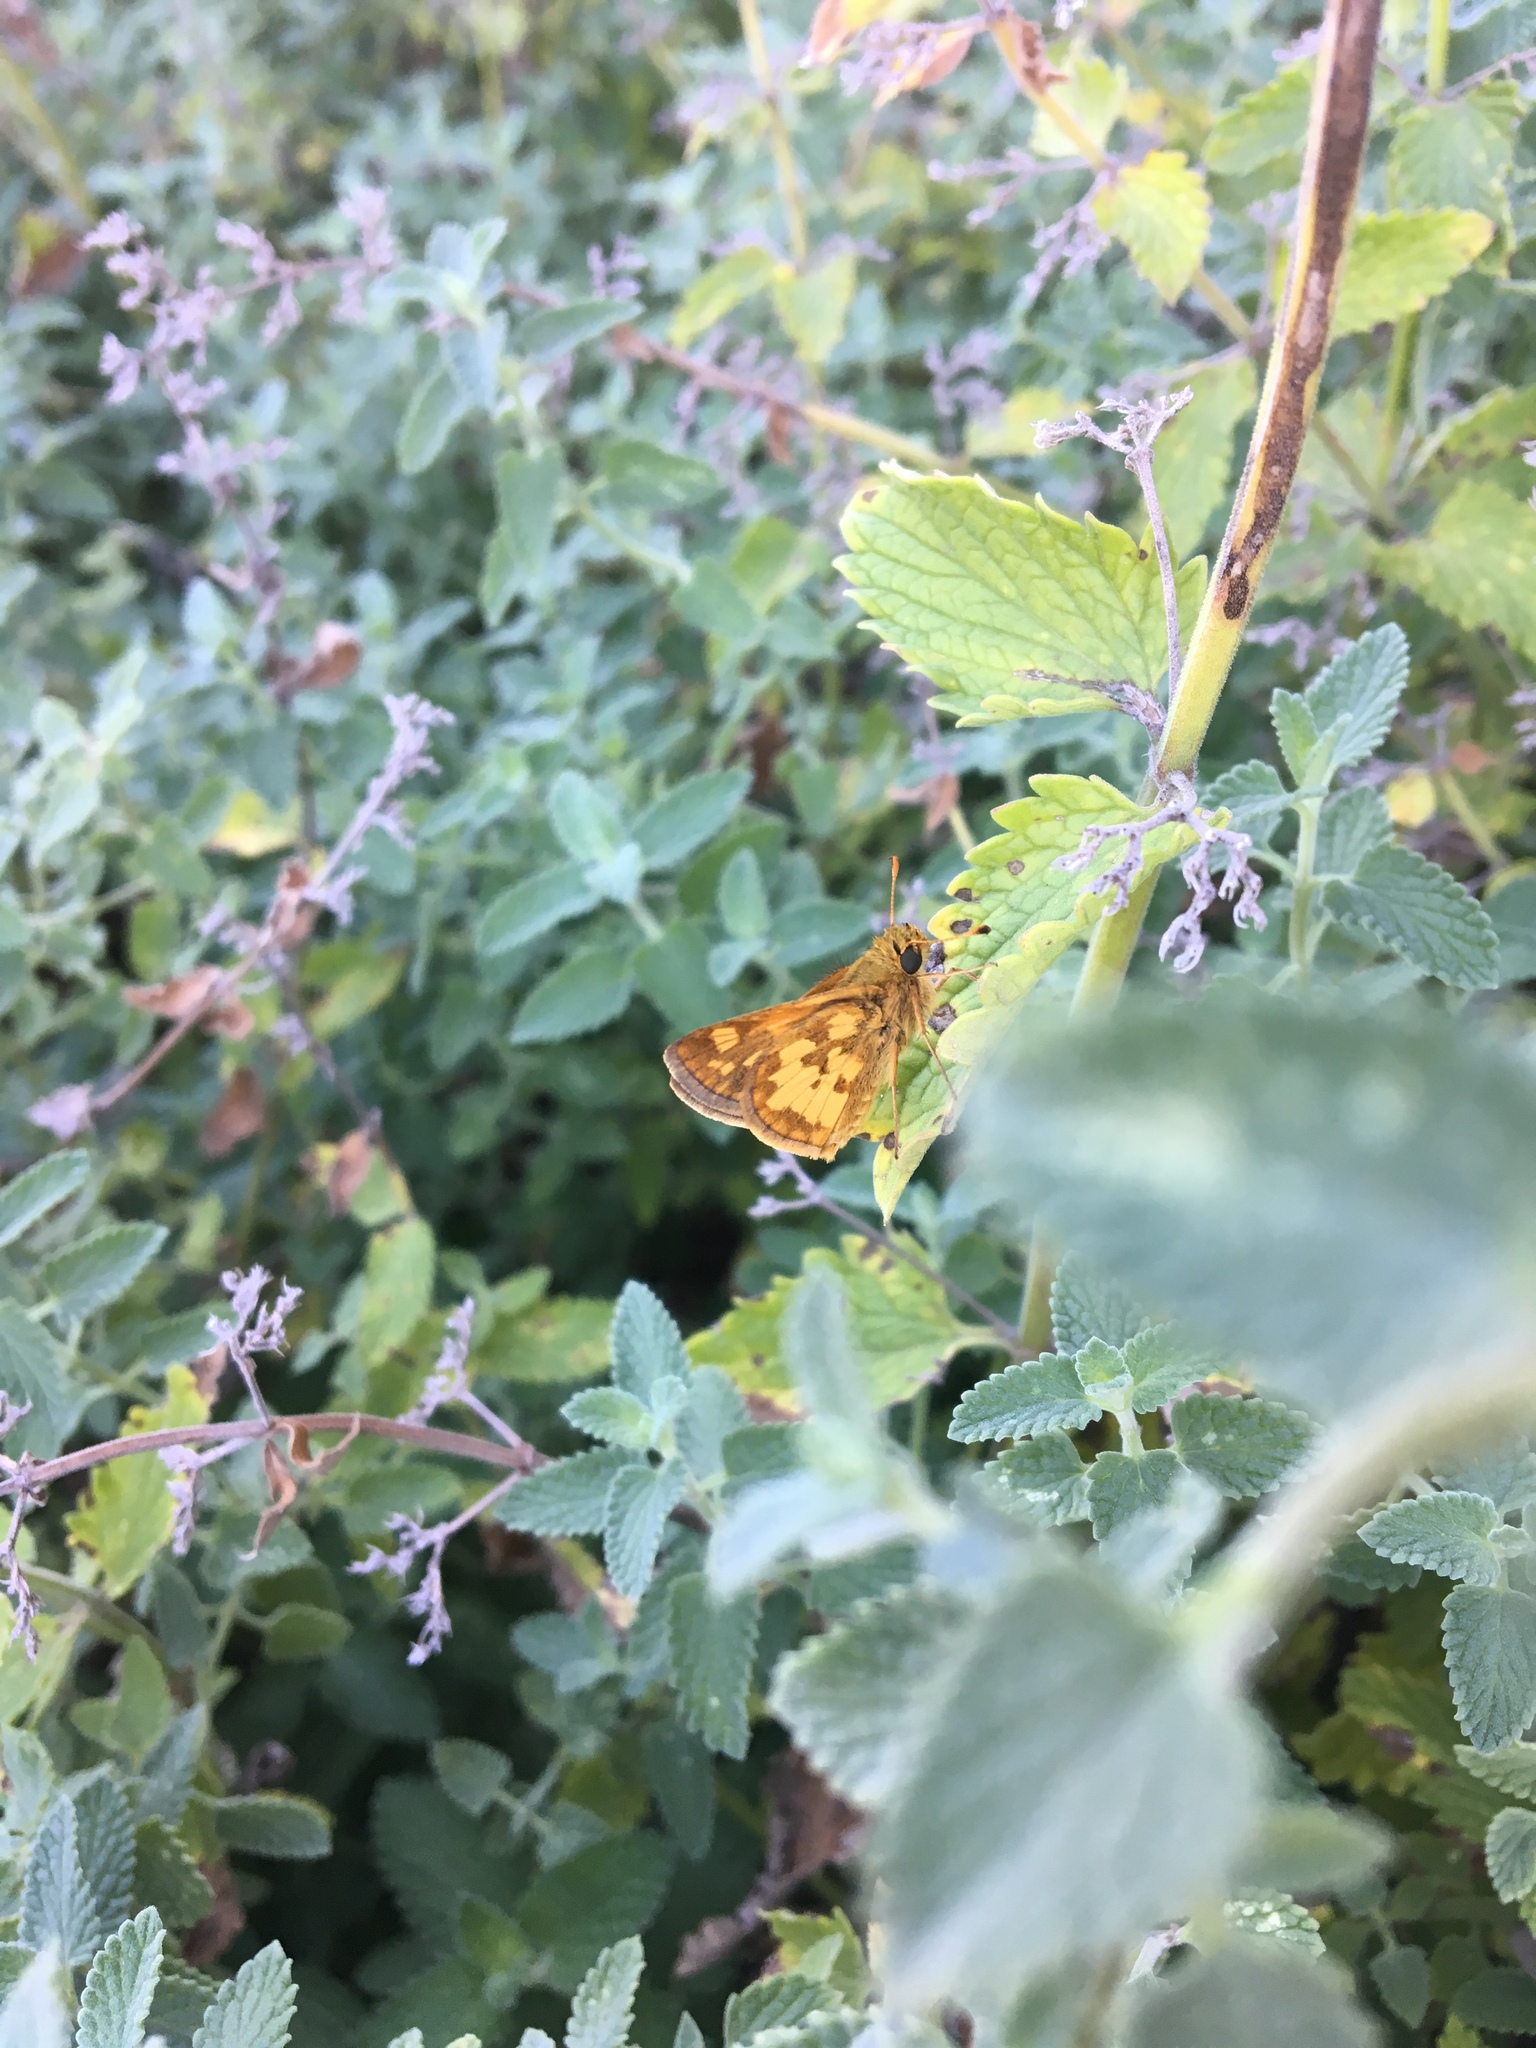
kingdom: Animalia
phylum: Arthropoda
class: Insecta
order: Lepidoptera
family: Hesperiidae
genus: Polites
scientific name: Polites coras
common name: Peck's skipper
